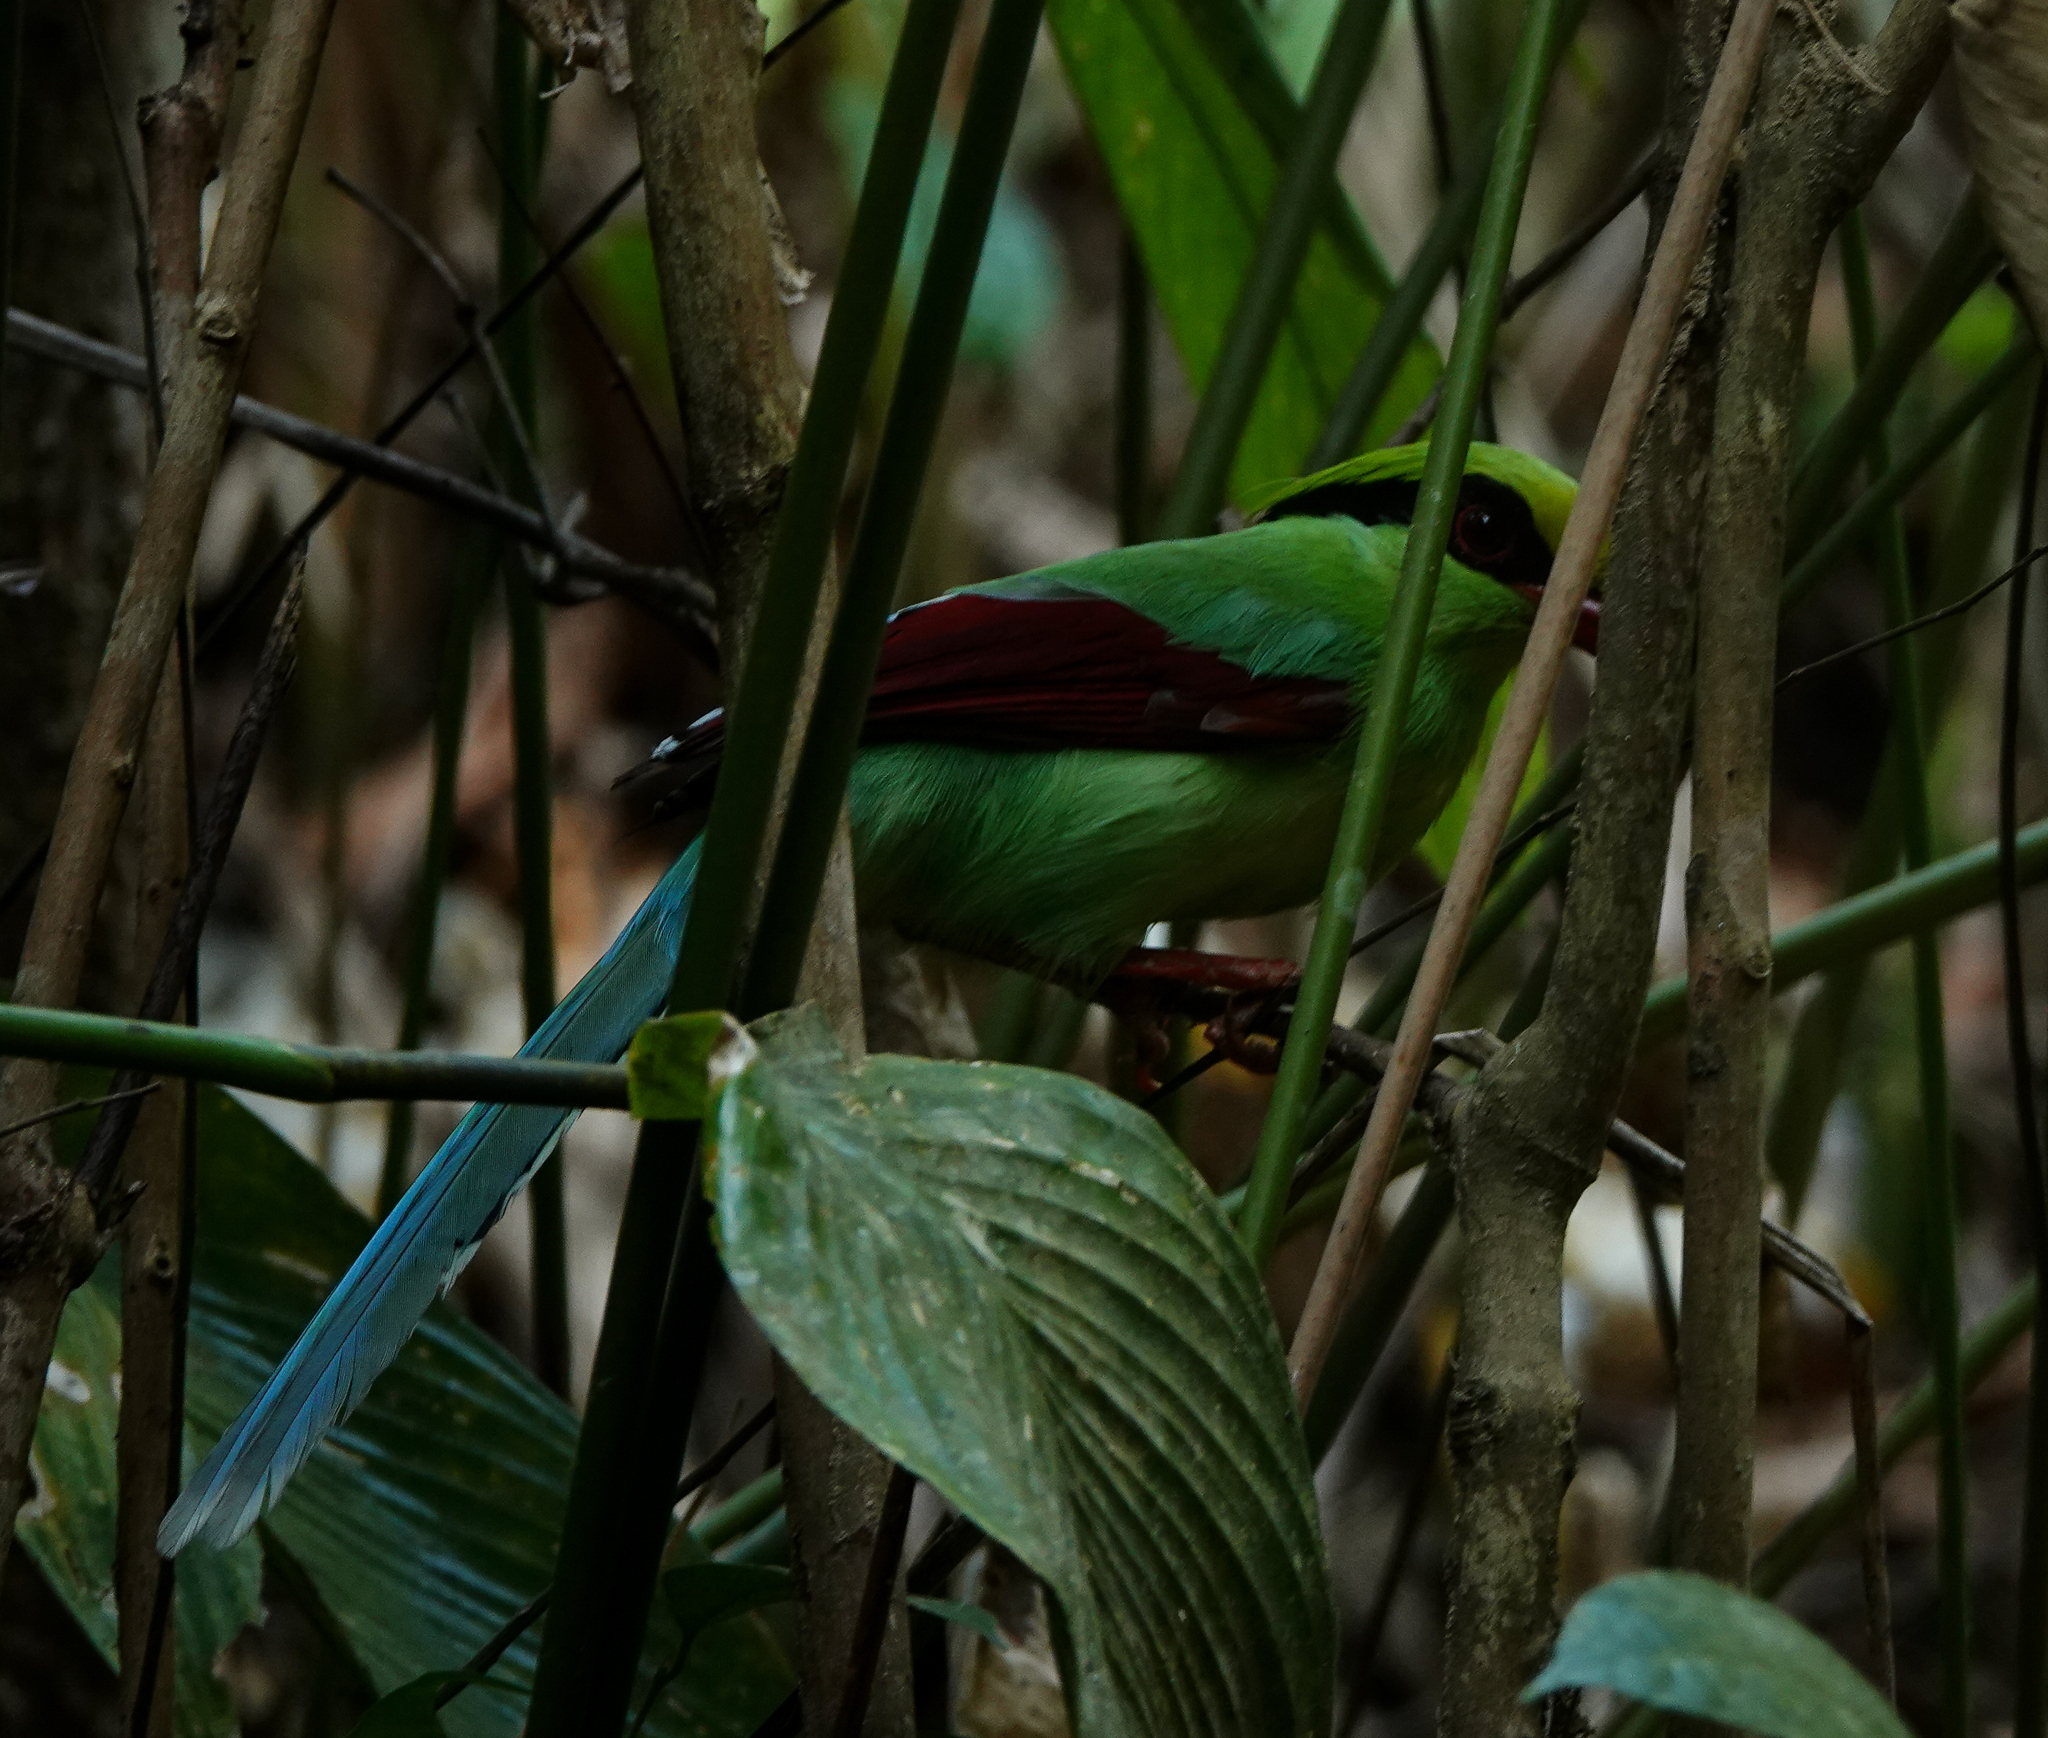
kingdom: Animalia
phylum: Chordata
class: Aves
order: Passeriformes
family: Corvidae
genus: Cissa
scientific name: Cissa chinensis
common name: Common green magpie
